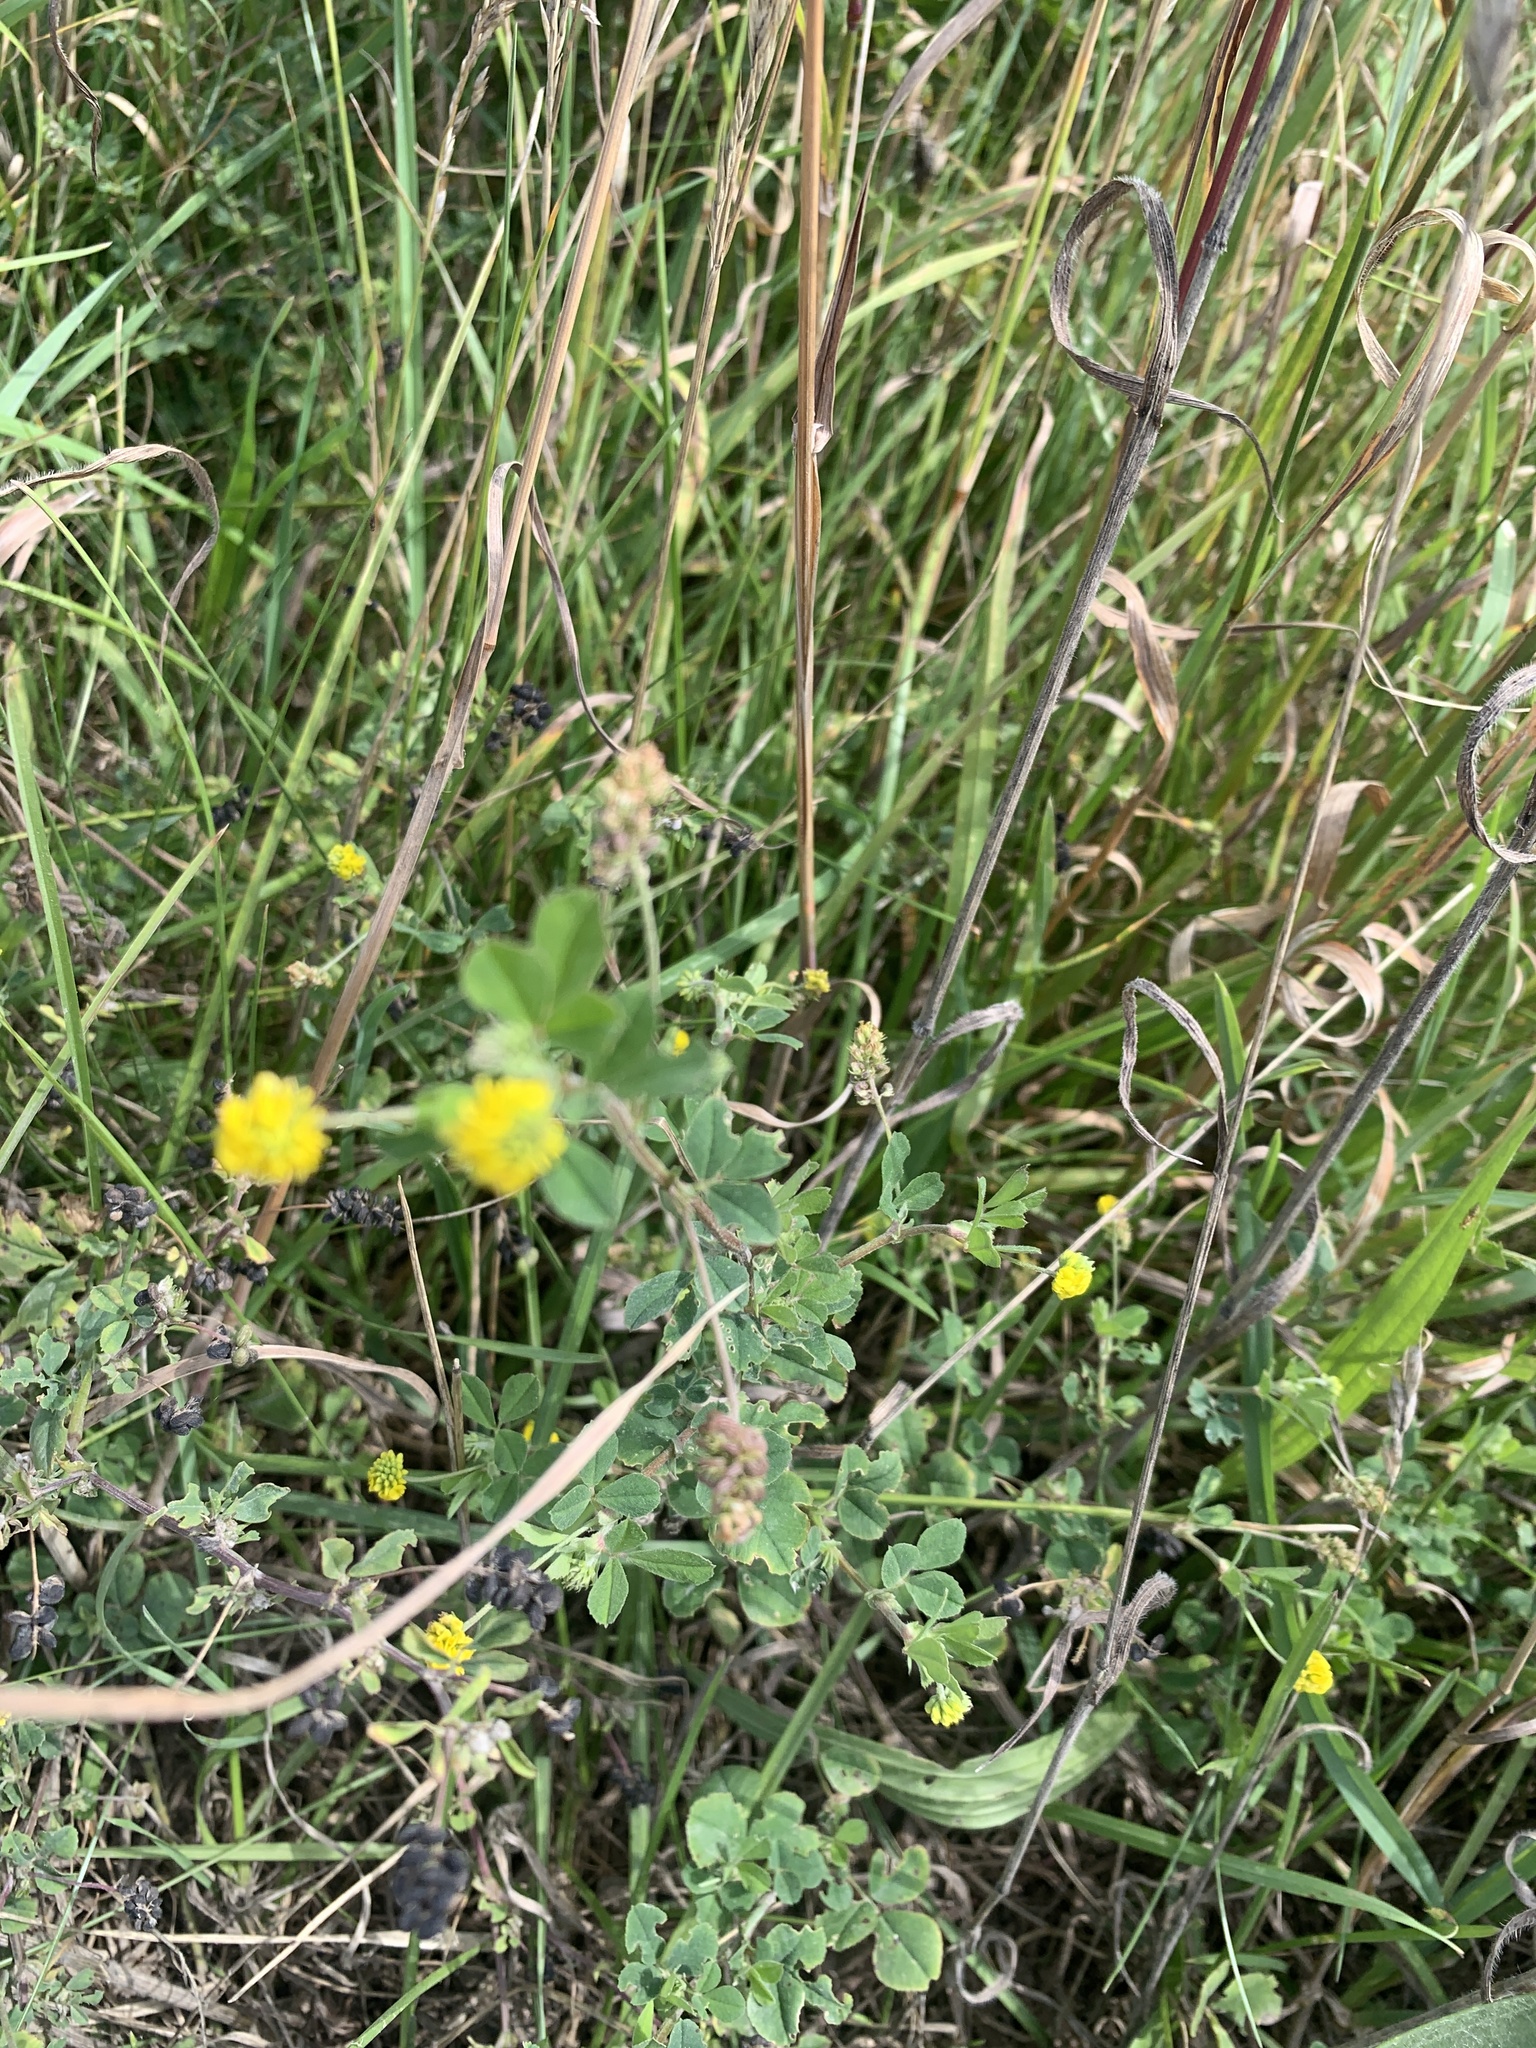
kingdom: Plantae
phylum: Tracheophyta
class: Magnoliopsida
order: Fabales
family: Fabaceae
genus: Medicago
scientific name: Medicago lupulina
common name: Black medick
